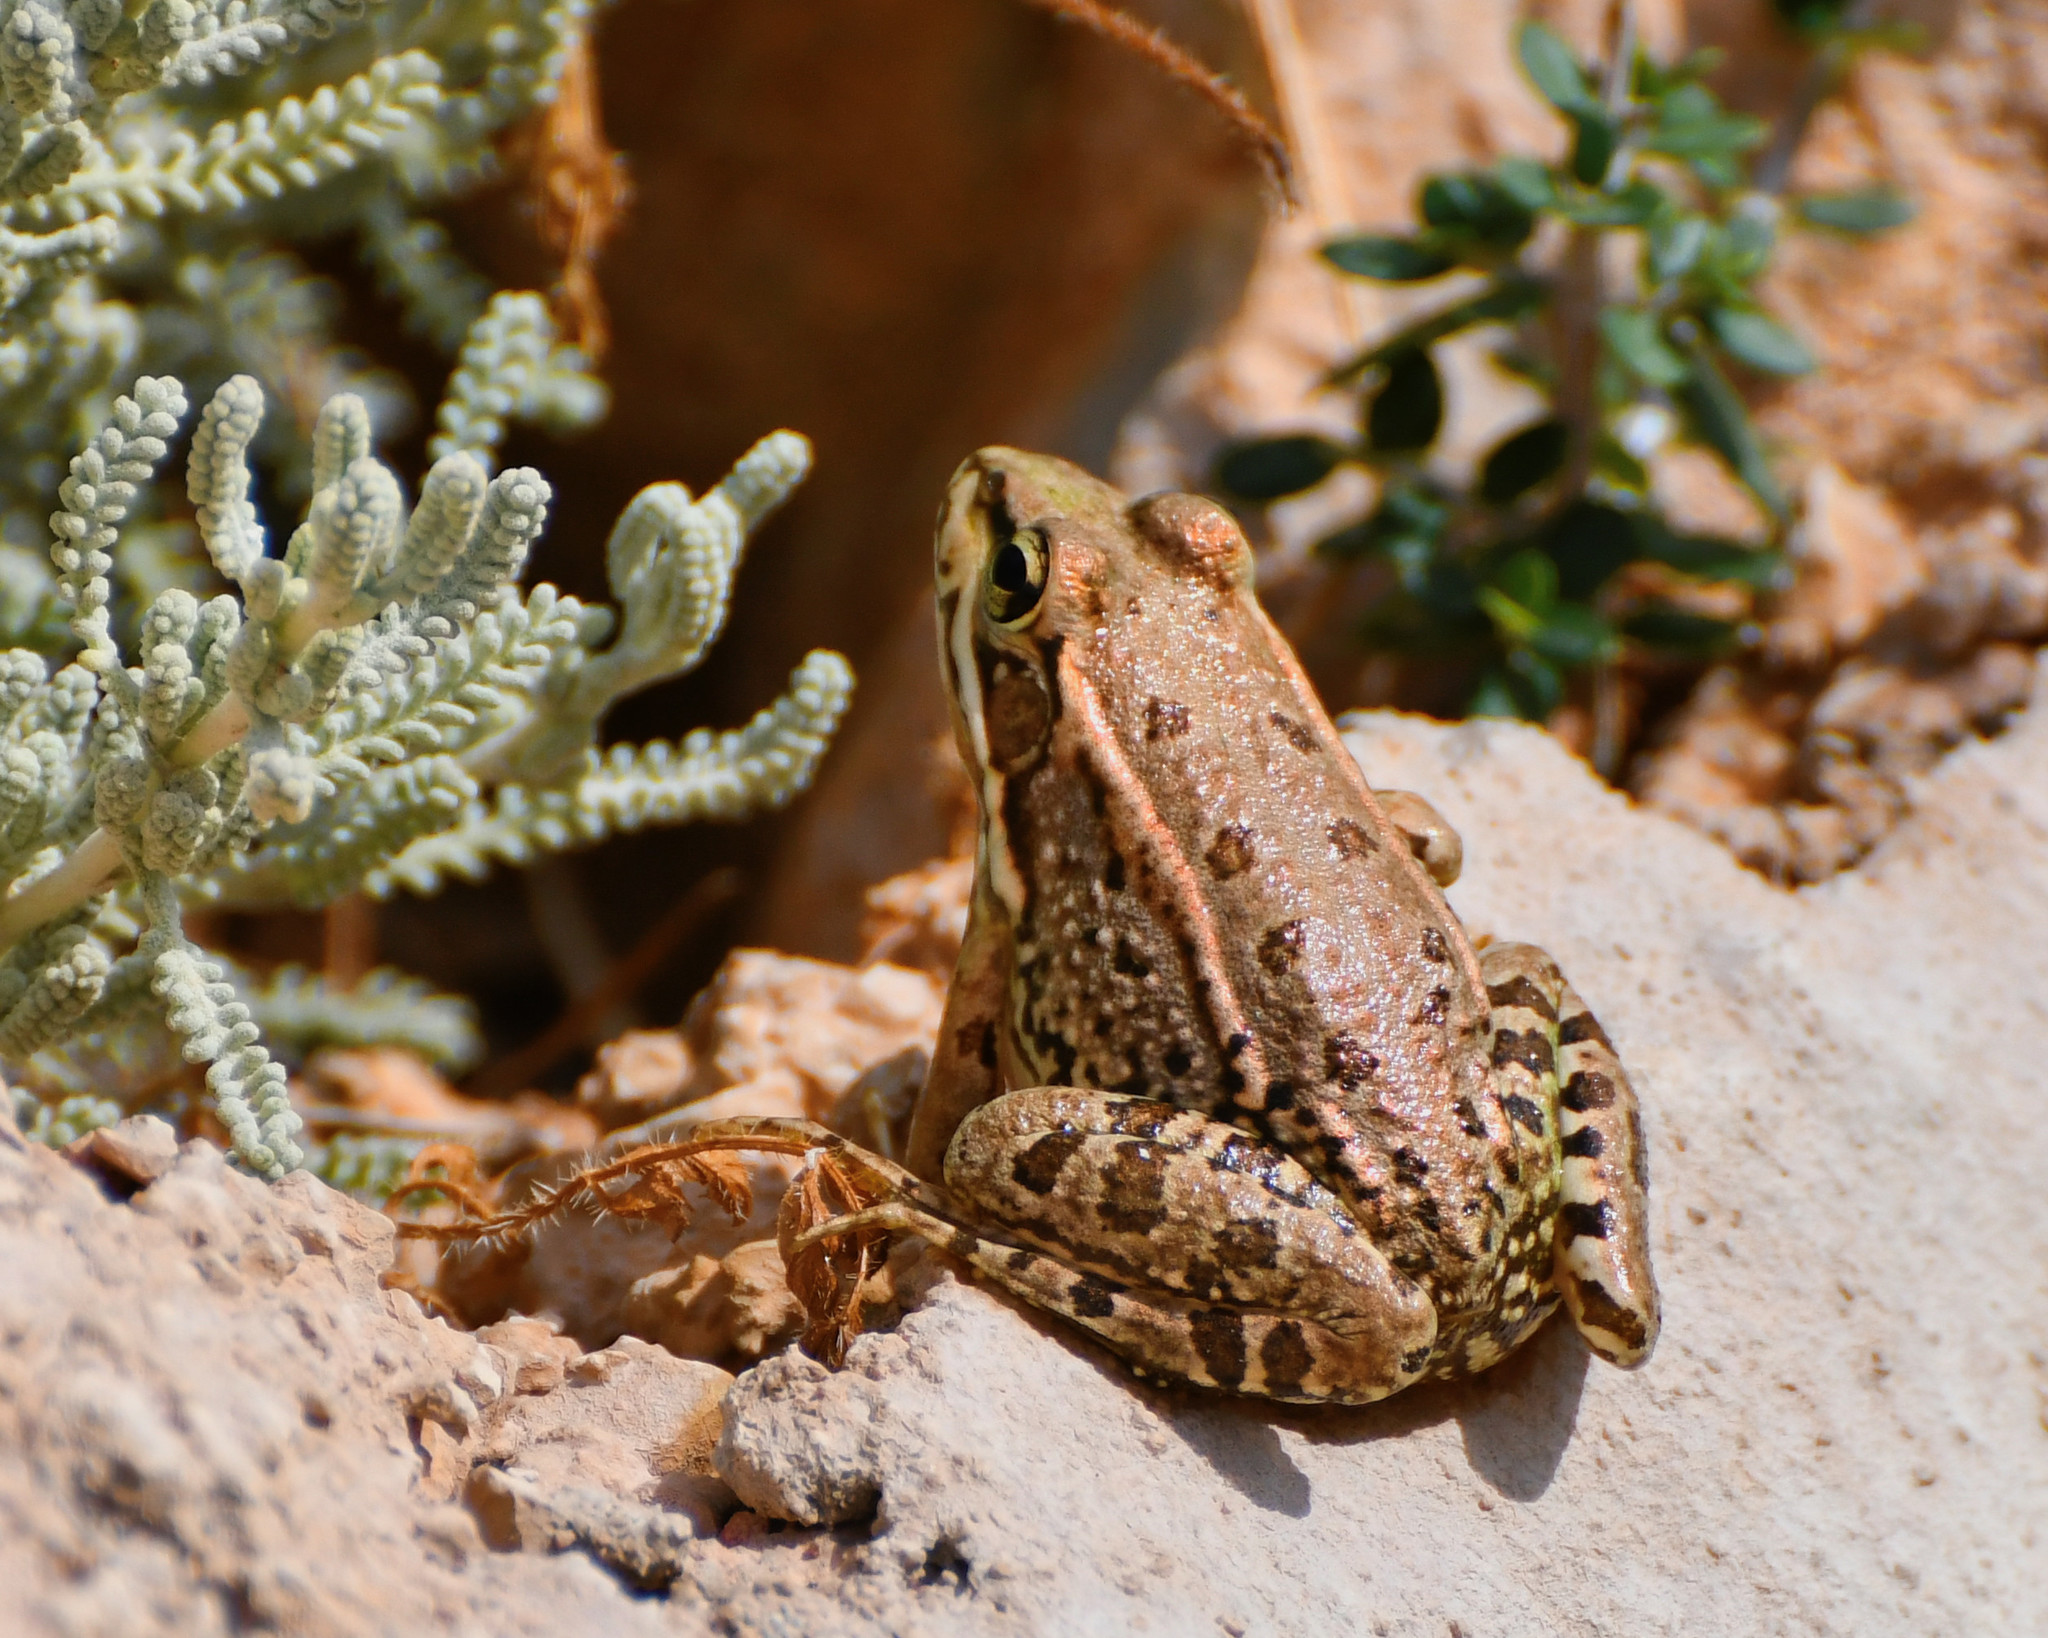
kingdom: Animalia
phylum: Chordata
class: Amphibia
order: Anura
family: Ranidae
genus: Pelophylax
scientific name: Pelophylax perezi
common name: Perez's frog
